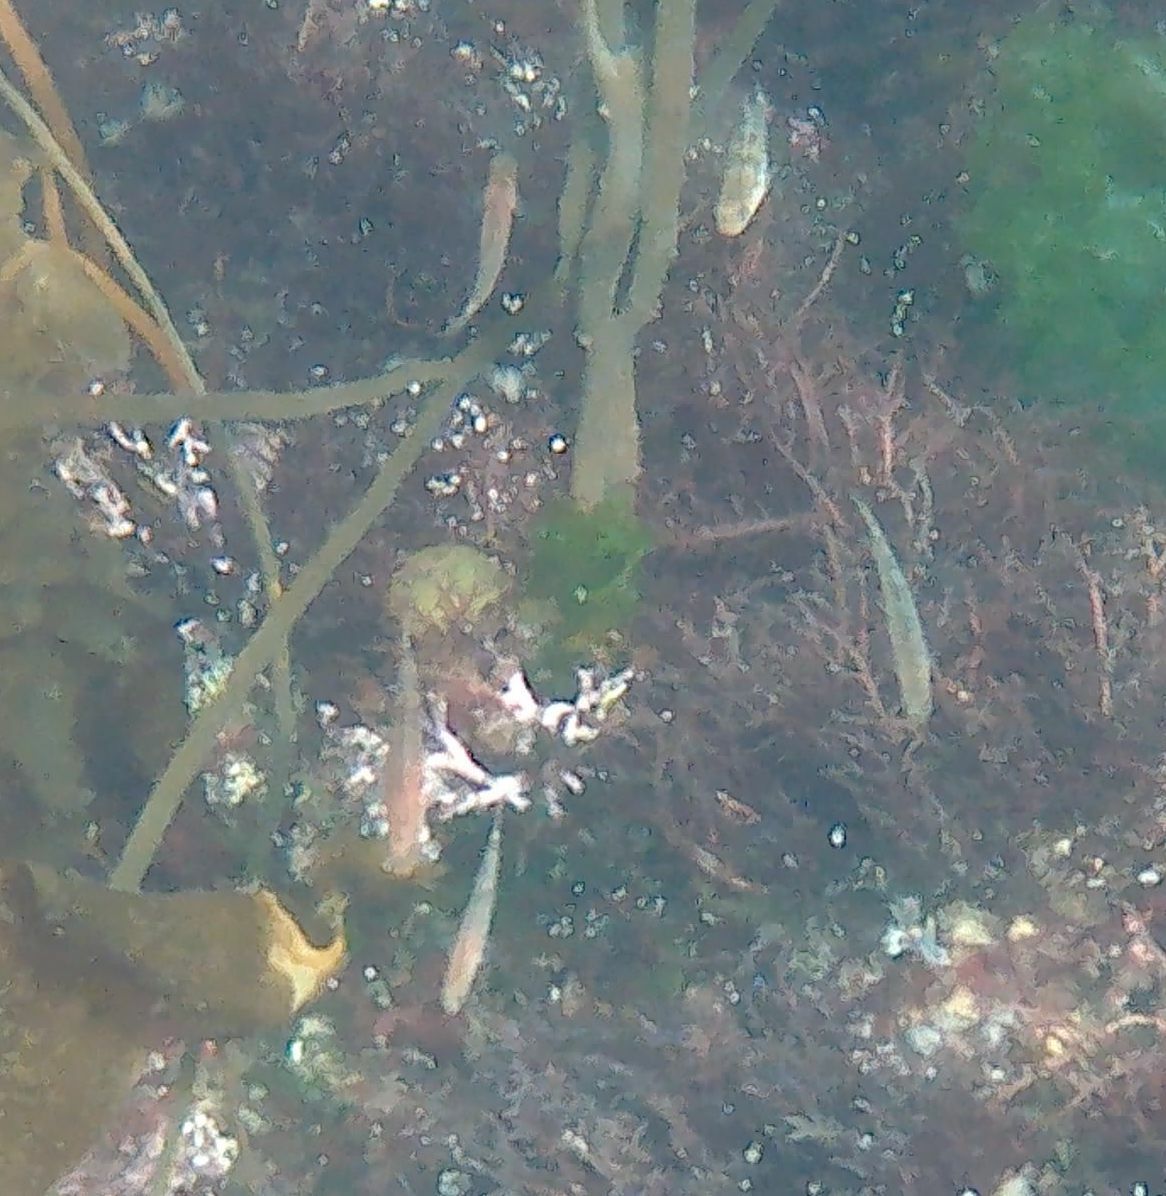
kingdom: Animalia
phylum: Chordata
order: Perciformes
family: Gobiidae
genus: Gobiusculus
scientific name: Gobiusculus flavescens
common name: Two-spotted goby
